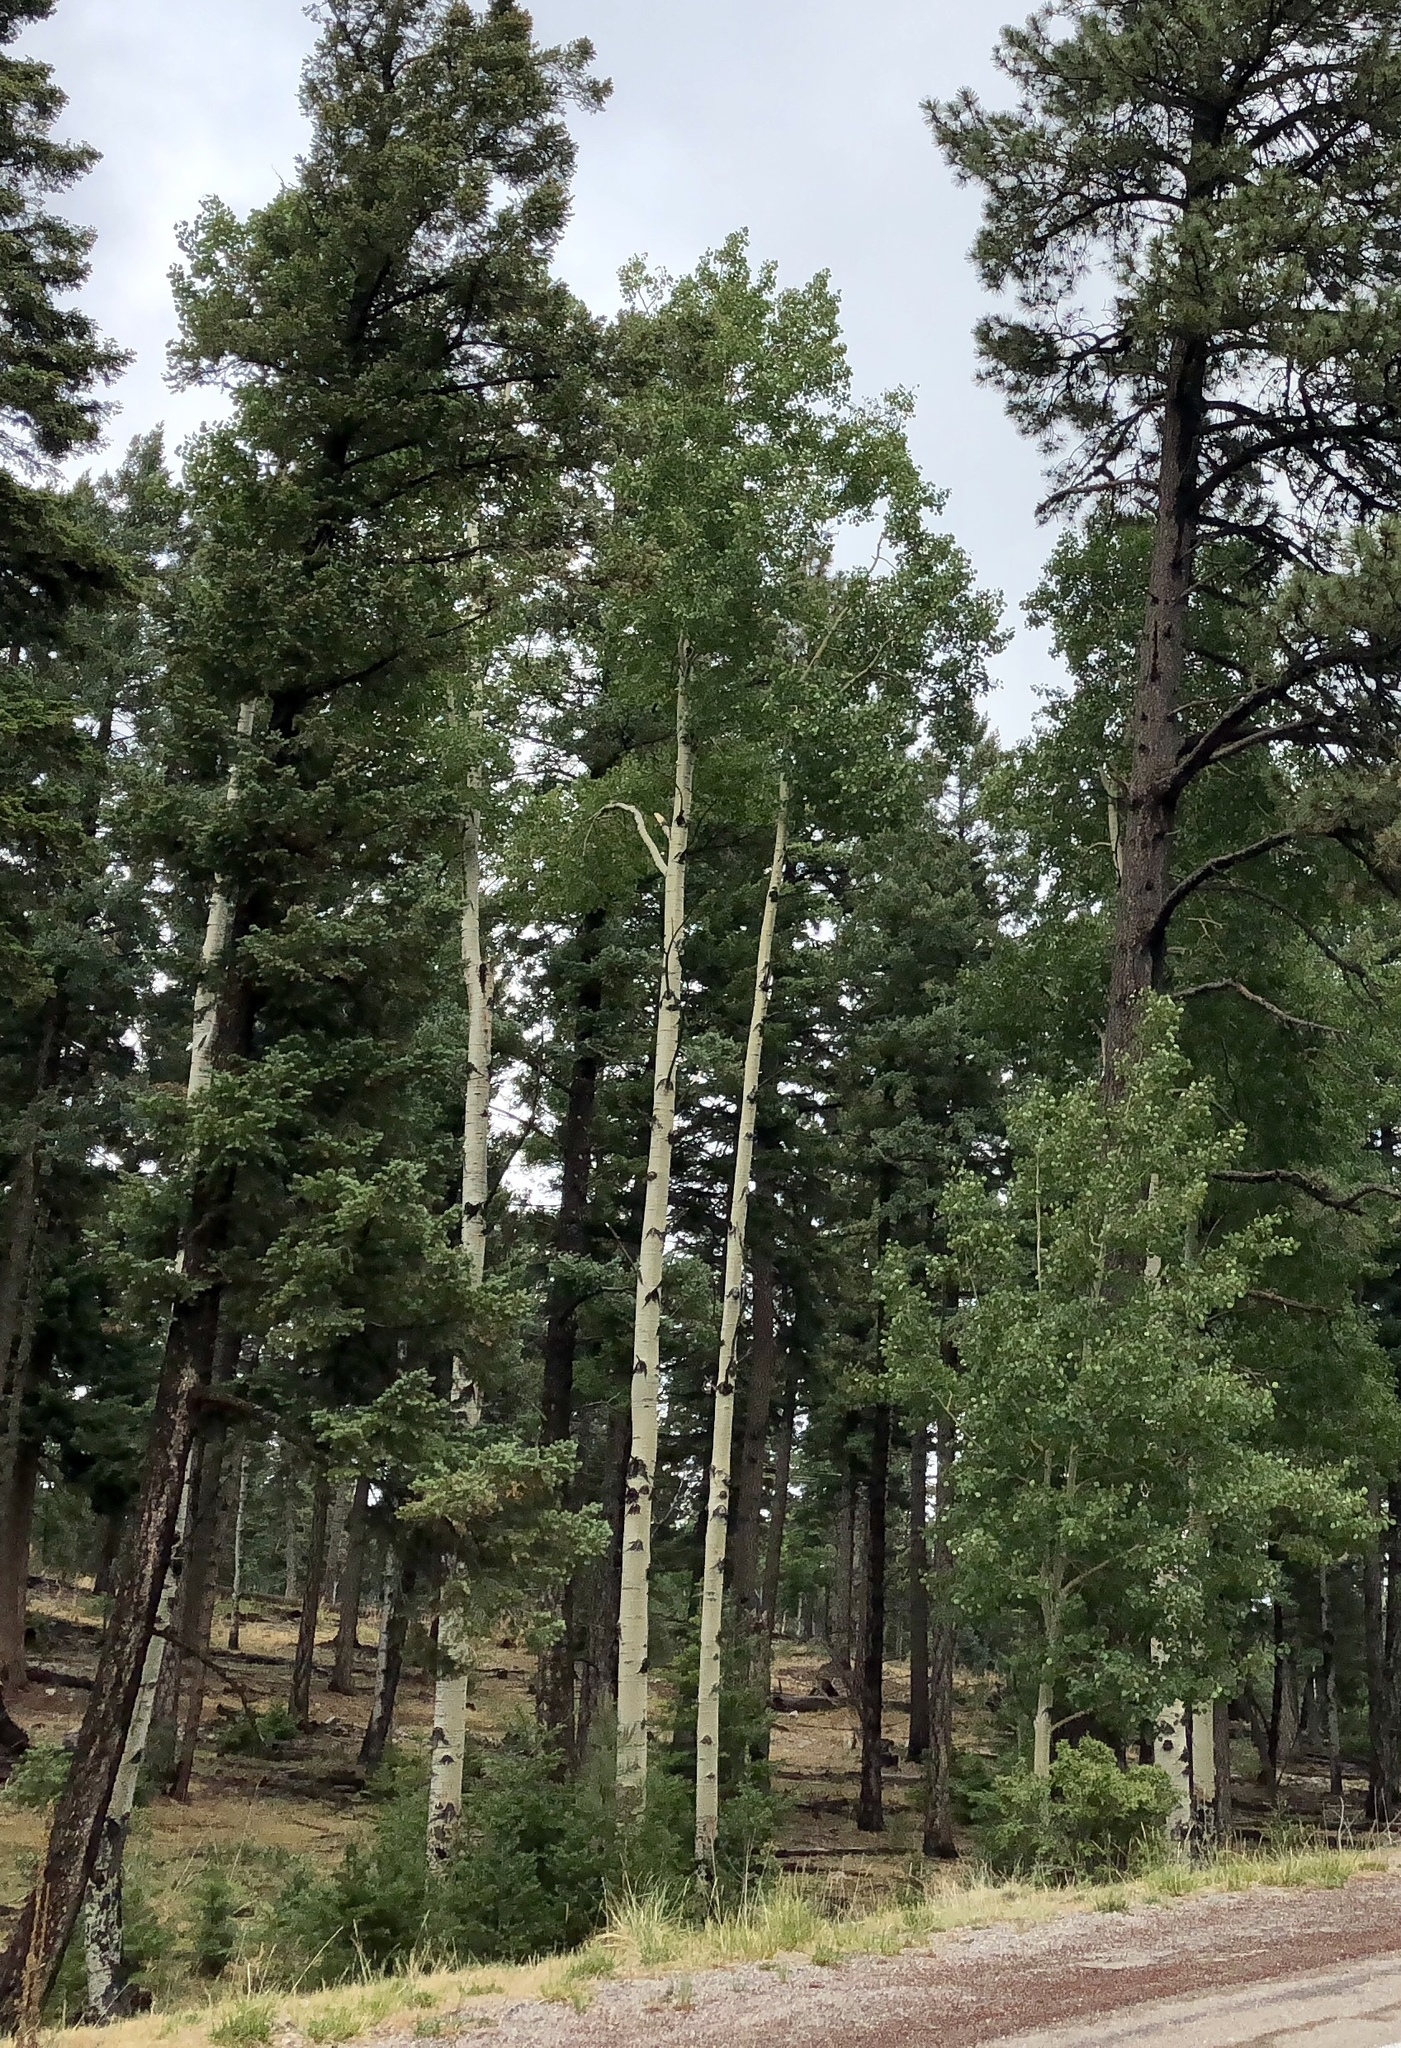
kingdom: Plantae
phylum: Tracheophyta
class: Magnoliopsida
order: Malpighiales
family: Salicaceae
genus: Populus
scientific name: Populus tremuloides
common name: Quaking aspen
